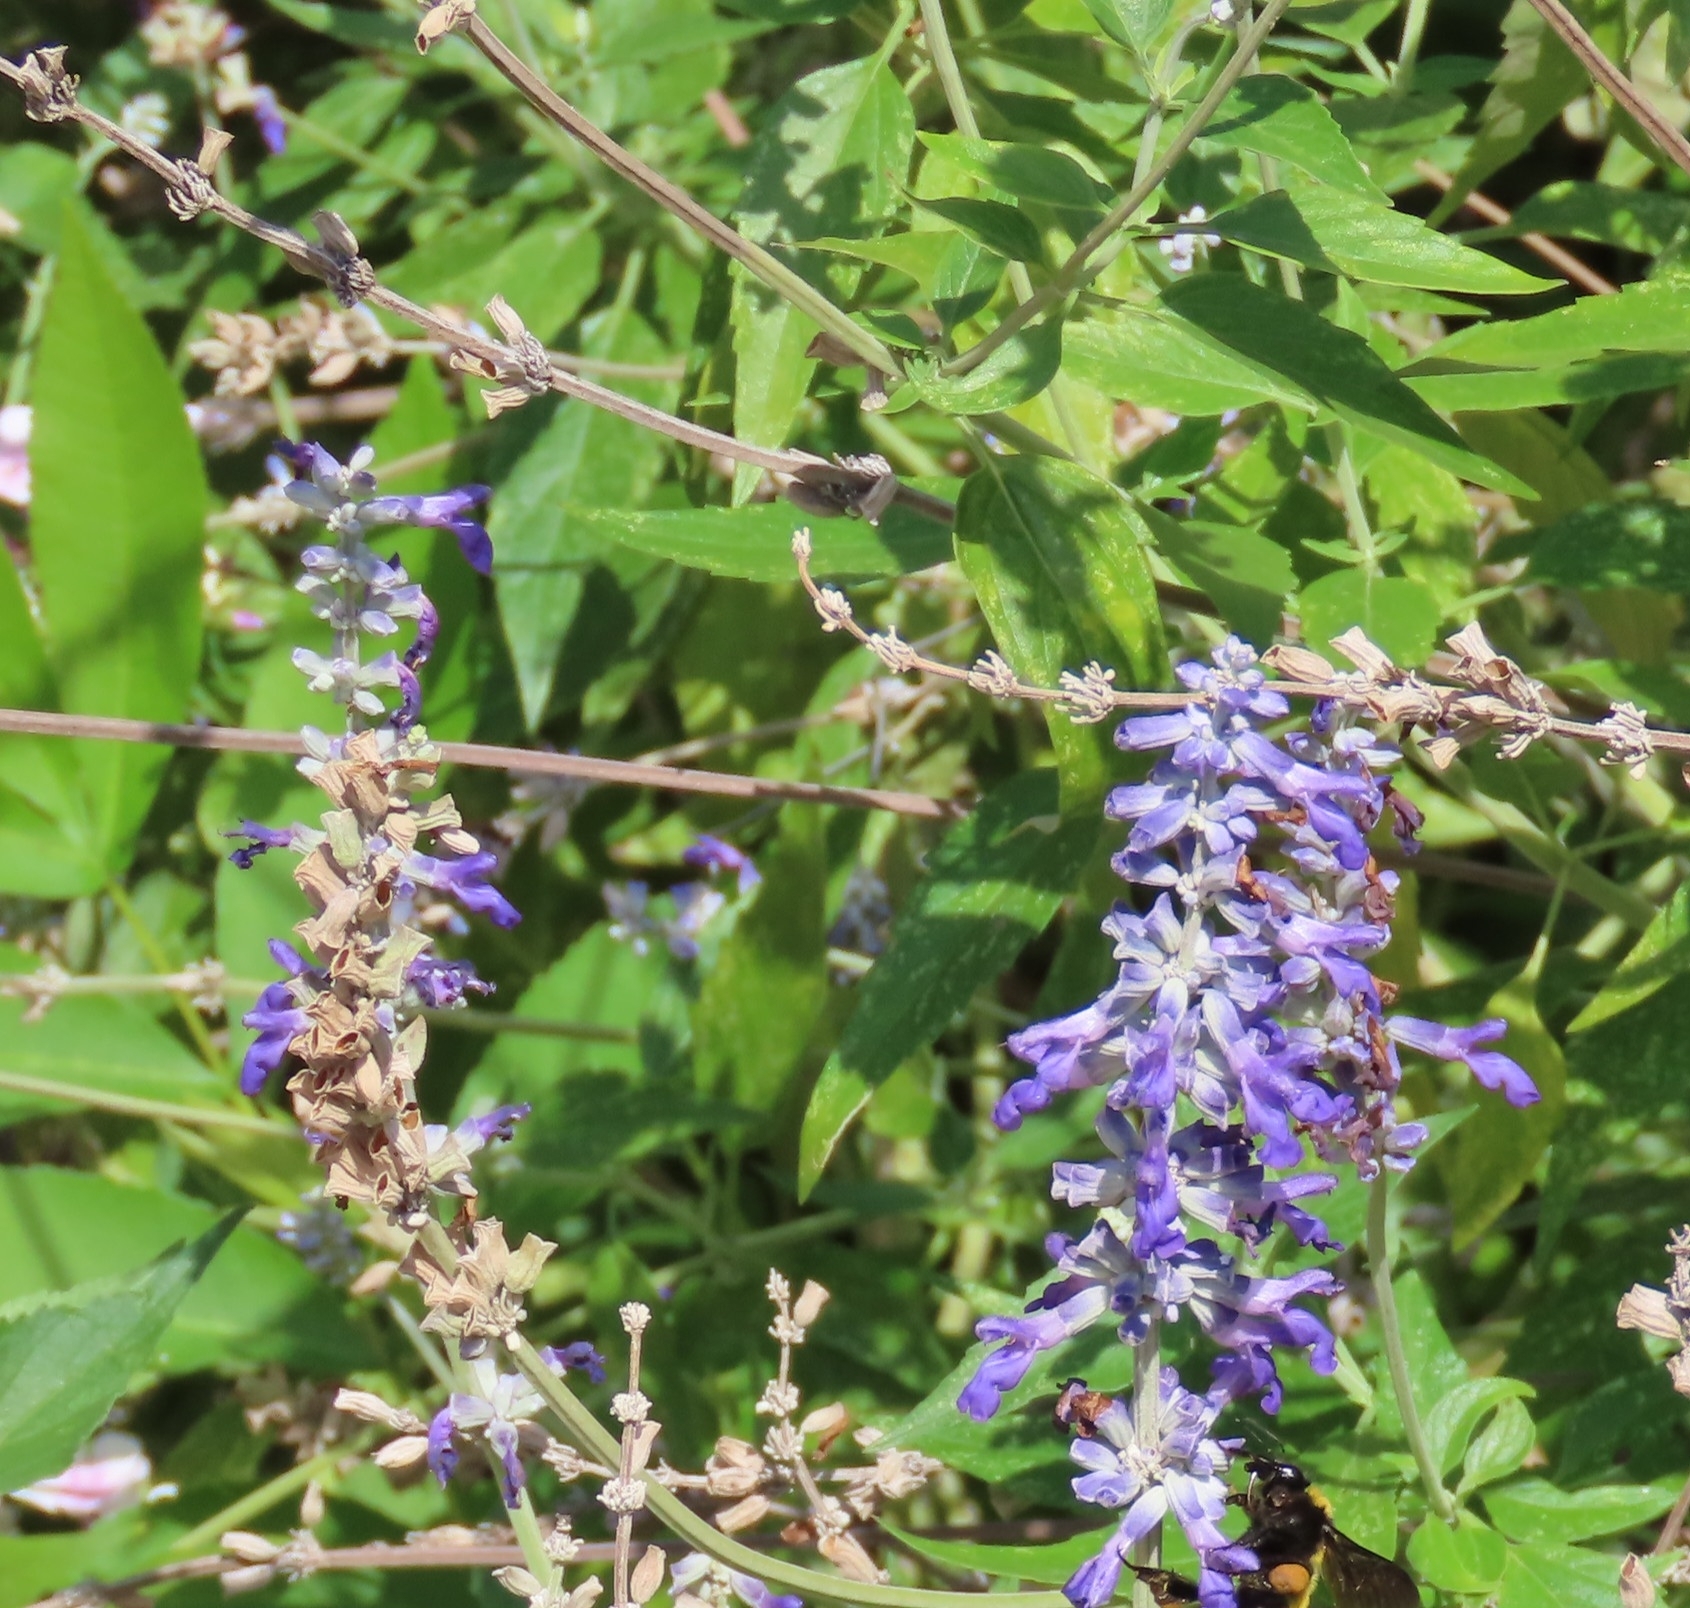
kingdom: Plantae
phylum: Tracheophyta
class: Magnoliopsida
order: Lamiales
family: Lamiaceae
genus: Salvia
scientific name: Salvia farinacea
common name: Mealy sage
